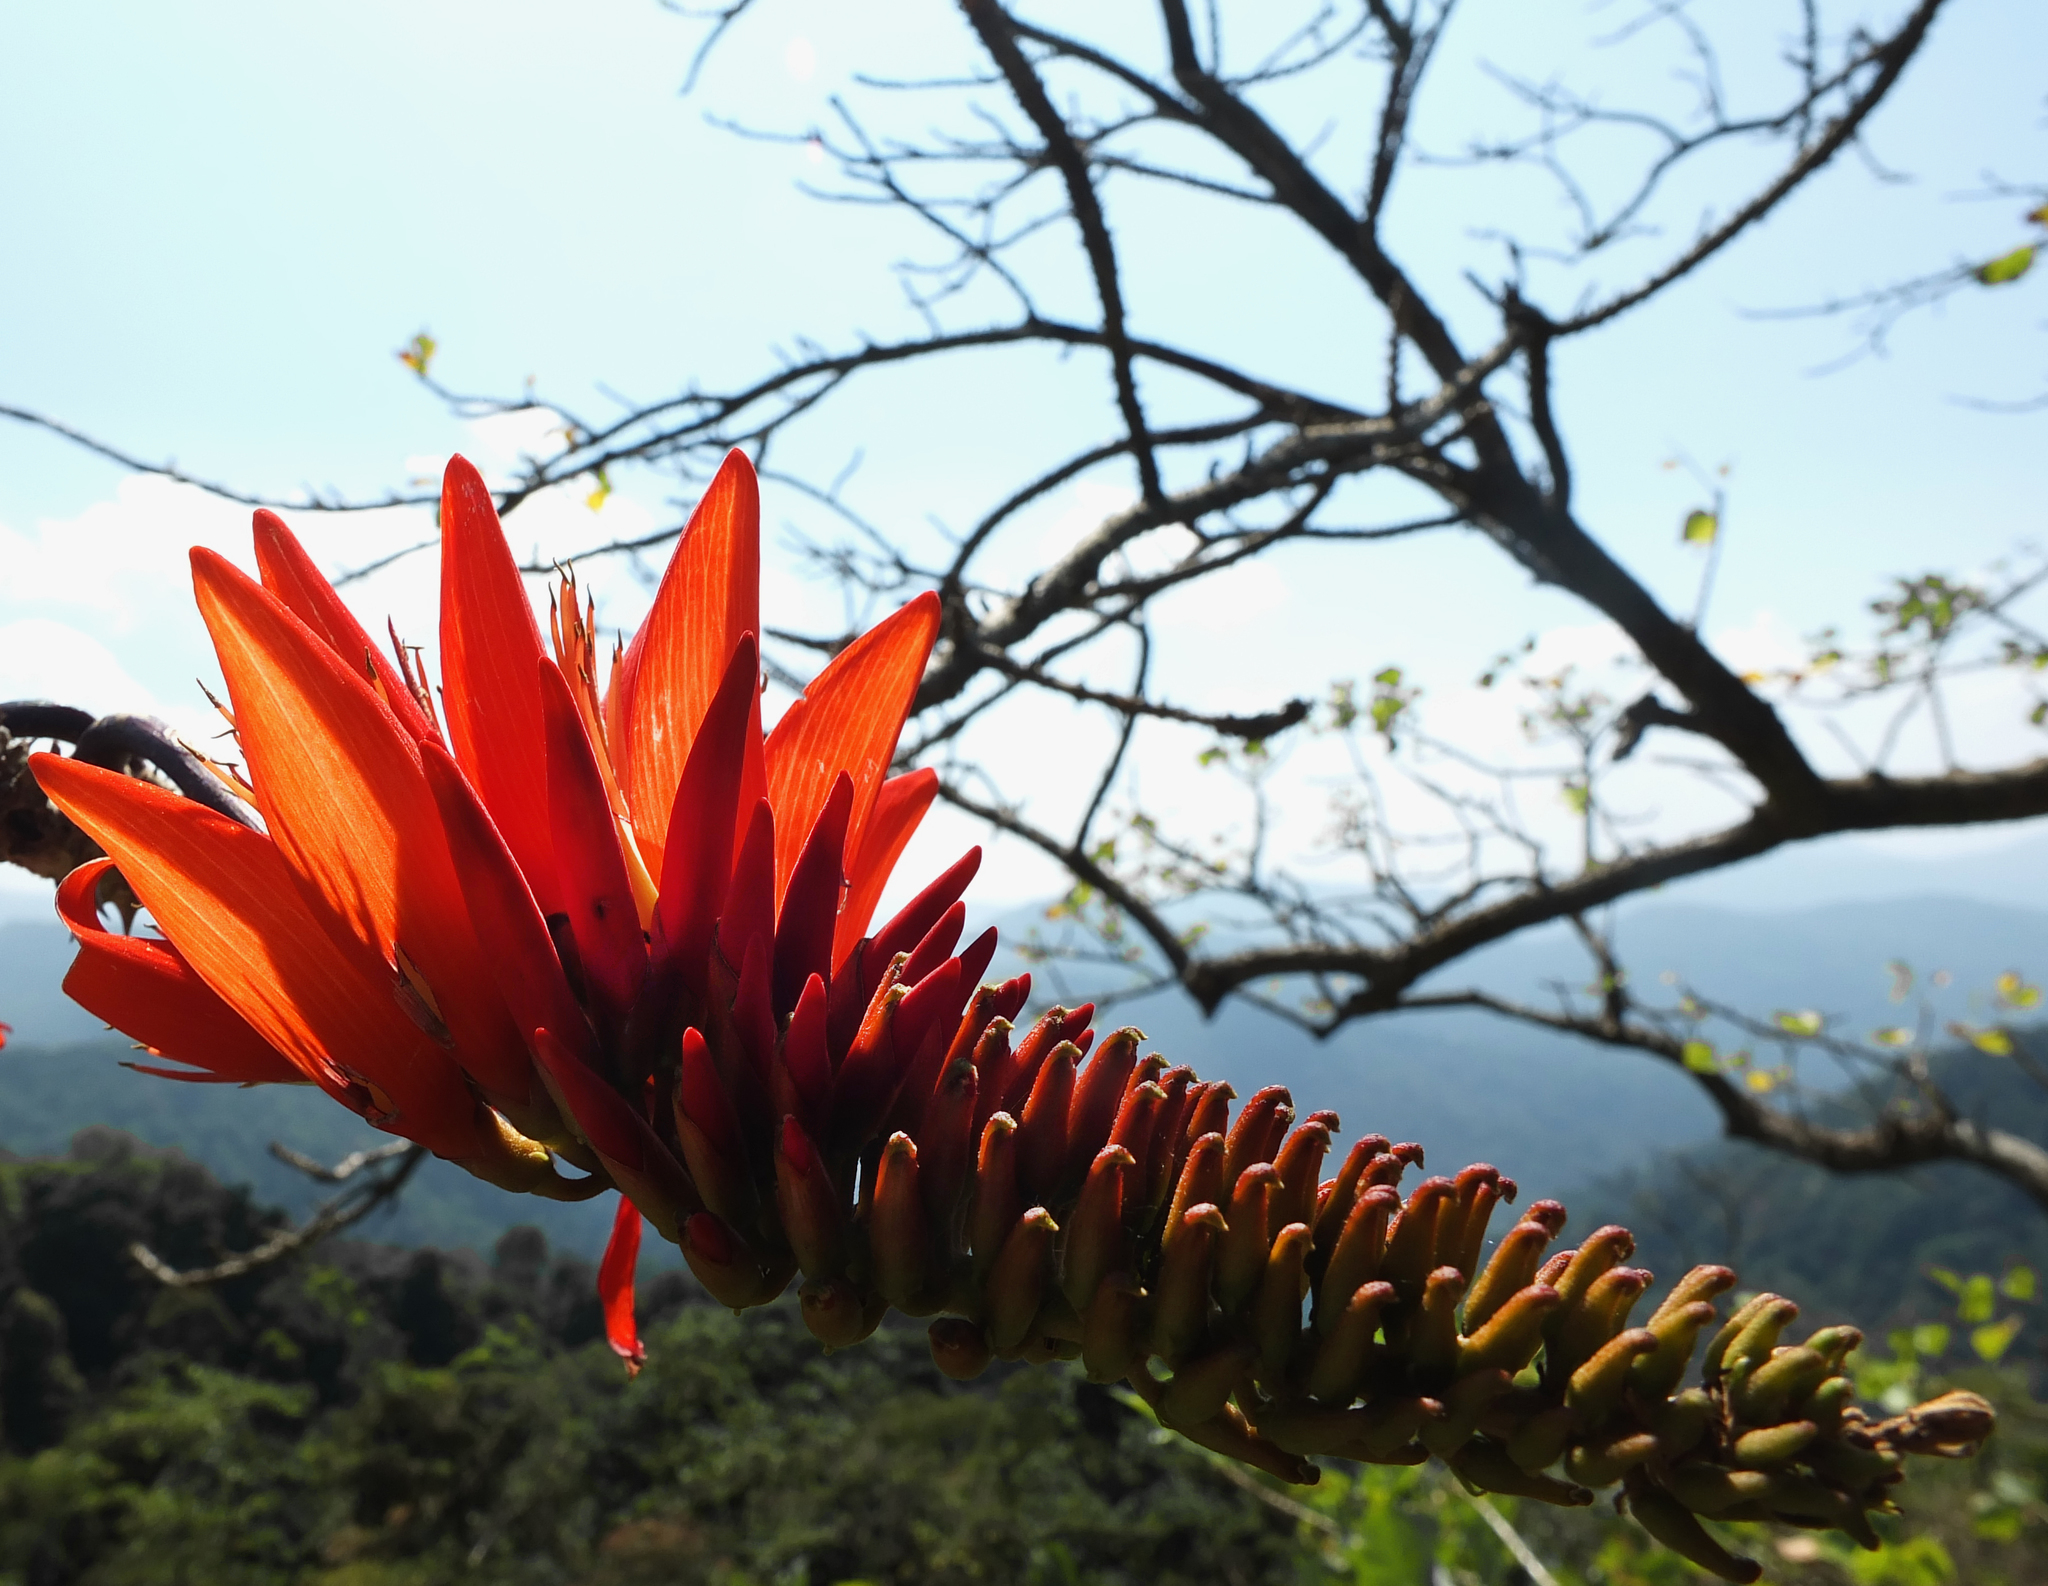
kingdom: Plantae
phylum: Tracheophyta
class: Magnoliopsida
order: Fabales
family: Fabaceae
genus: Erythrina
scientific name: Erythrina stricta
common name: Coraltree
